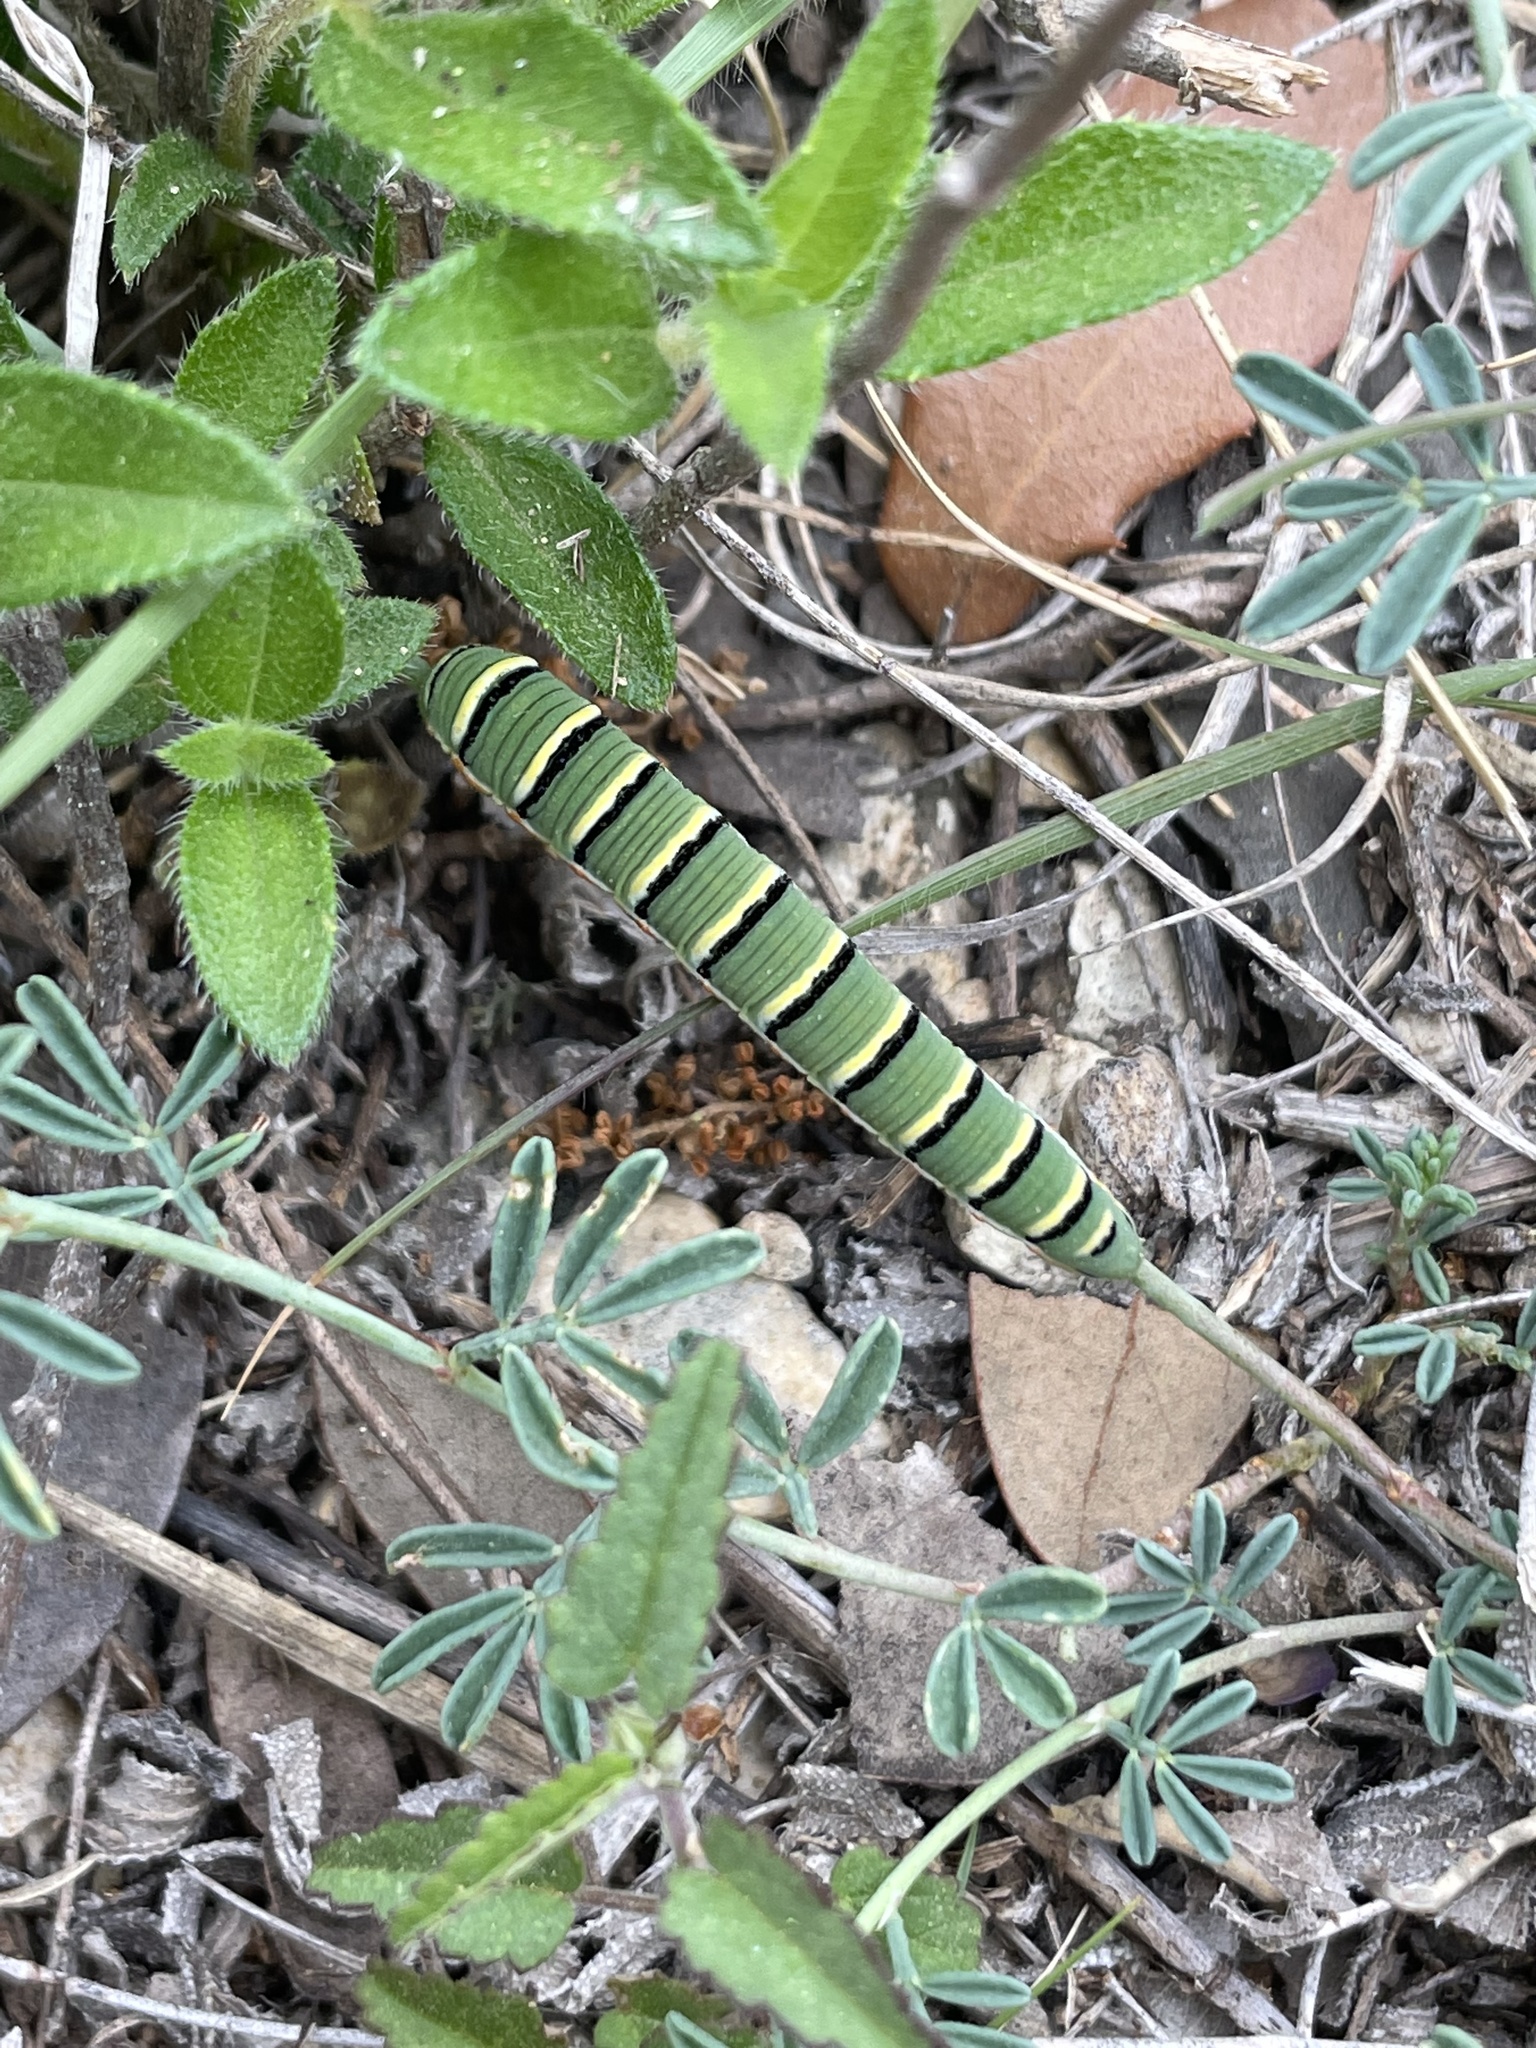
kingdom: Animalia
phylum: Arthropoda
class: Insecta
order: Lepidoptera
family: Pieridae
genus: Zerene
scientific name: Zerene cesonia
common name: Southern dogface
